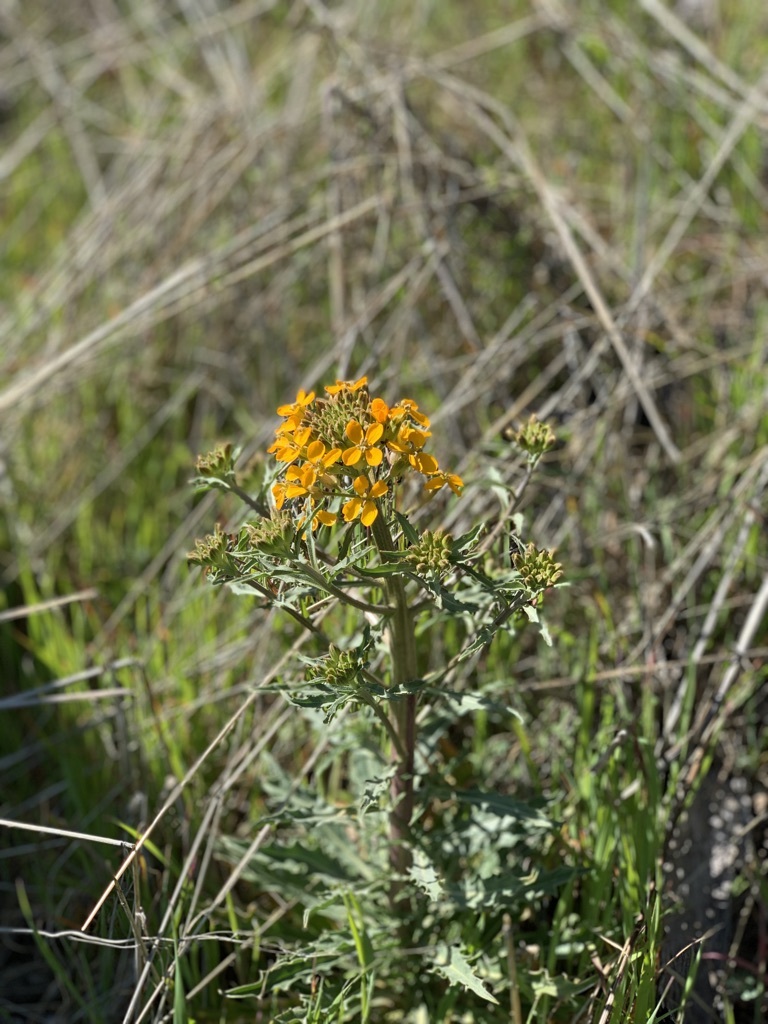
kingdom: Plantae
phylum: Tracheophyta
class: Magnoliopsida
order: Brassicales
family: Brassicaceae
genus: Erysimum
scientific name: Erysimum capitatum
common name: Western wallflower
